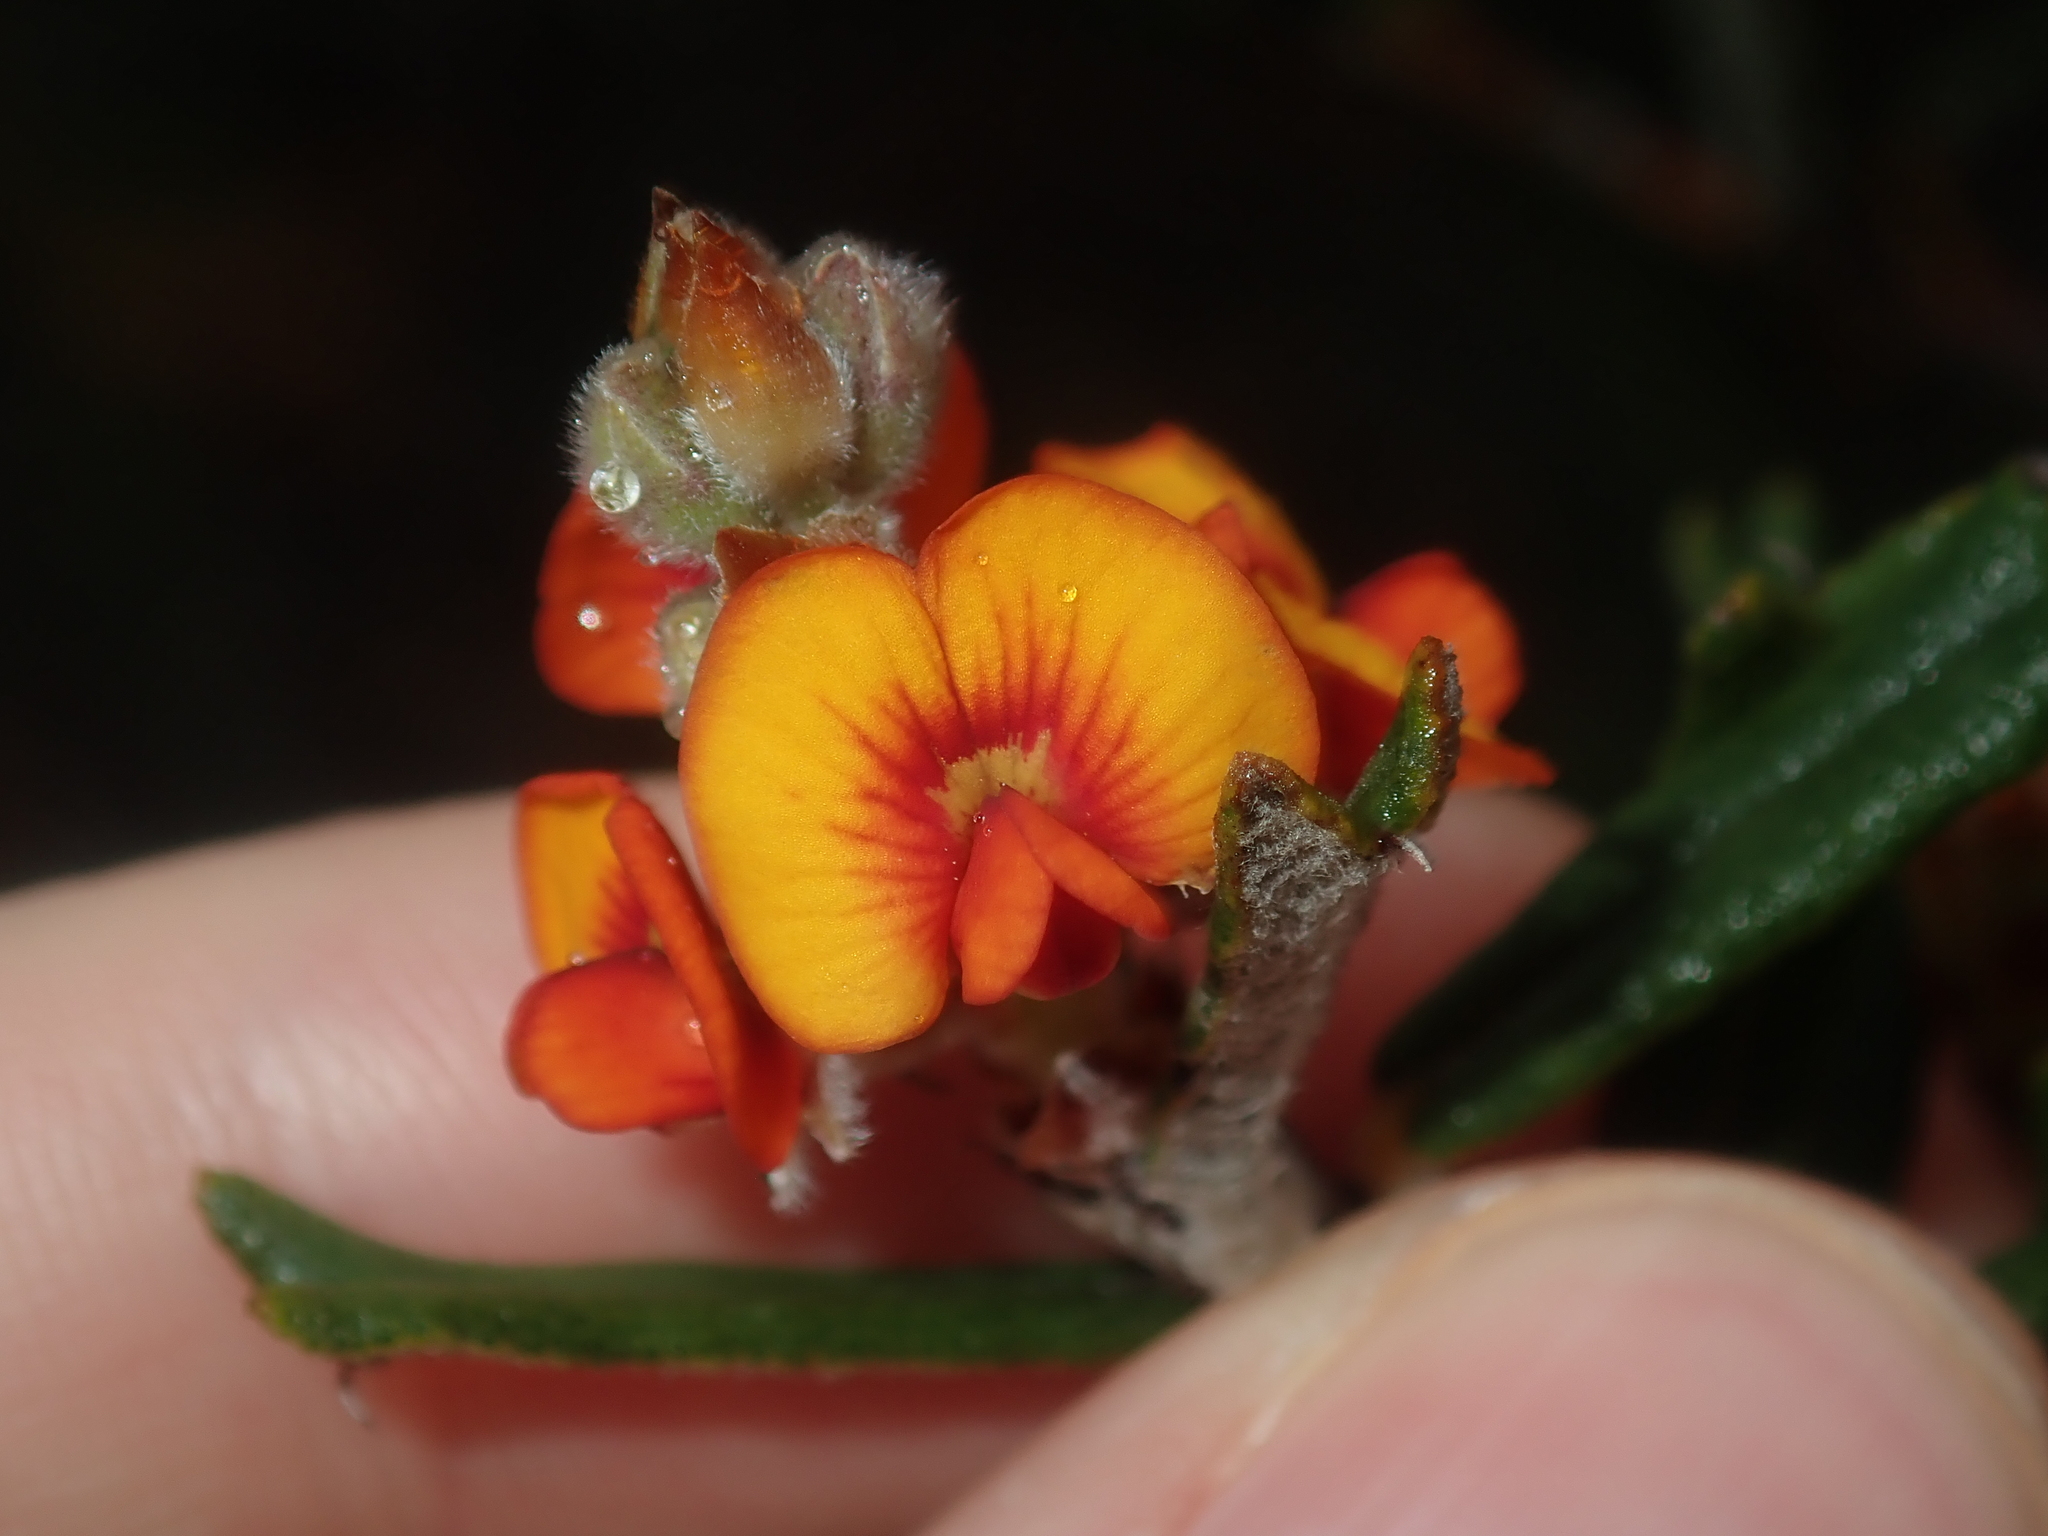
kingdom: Plantae
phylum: Tracheophyta
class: Magnoliopsida
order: Fabales
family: Fabaceae
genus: Gastrolobium
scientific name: Gastrolobium polystachyum
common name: Hill river poison
